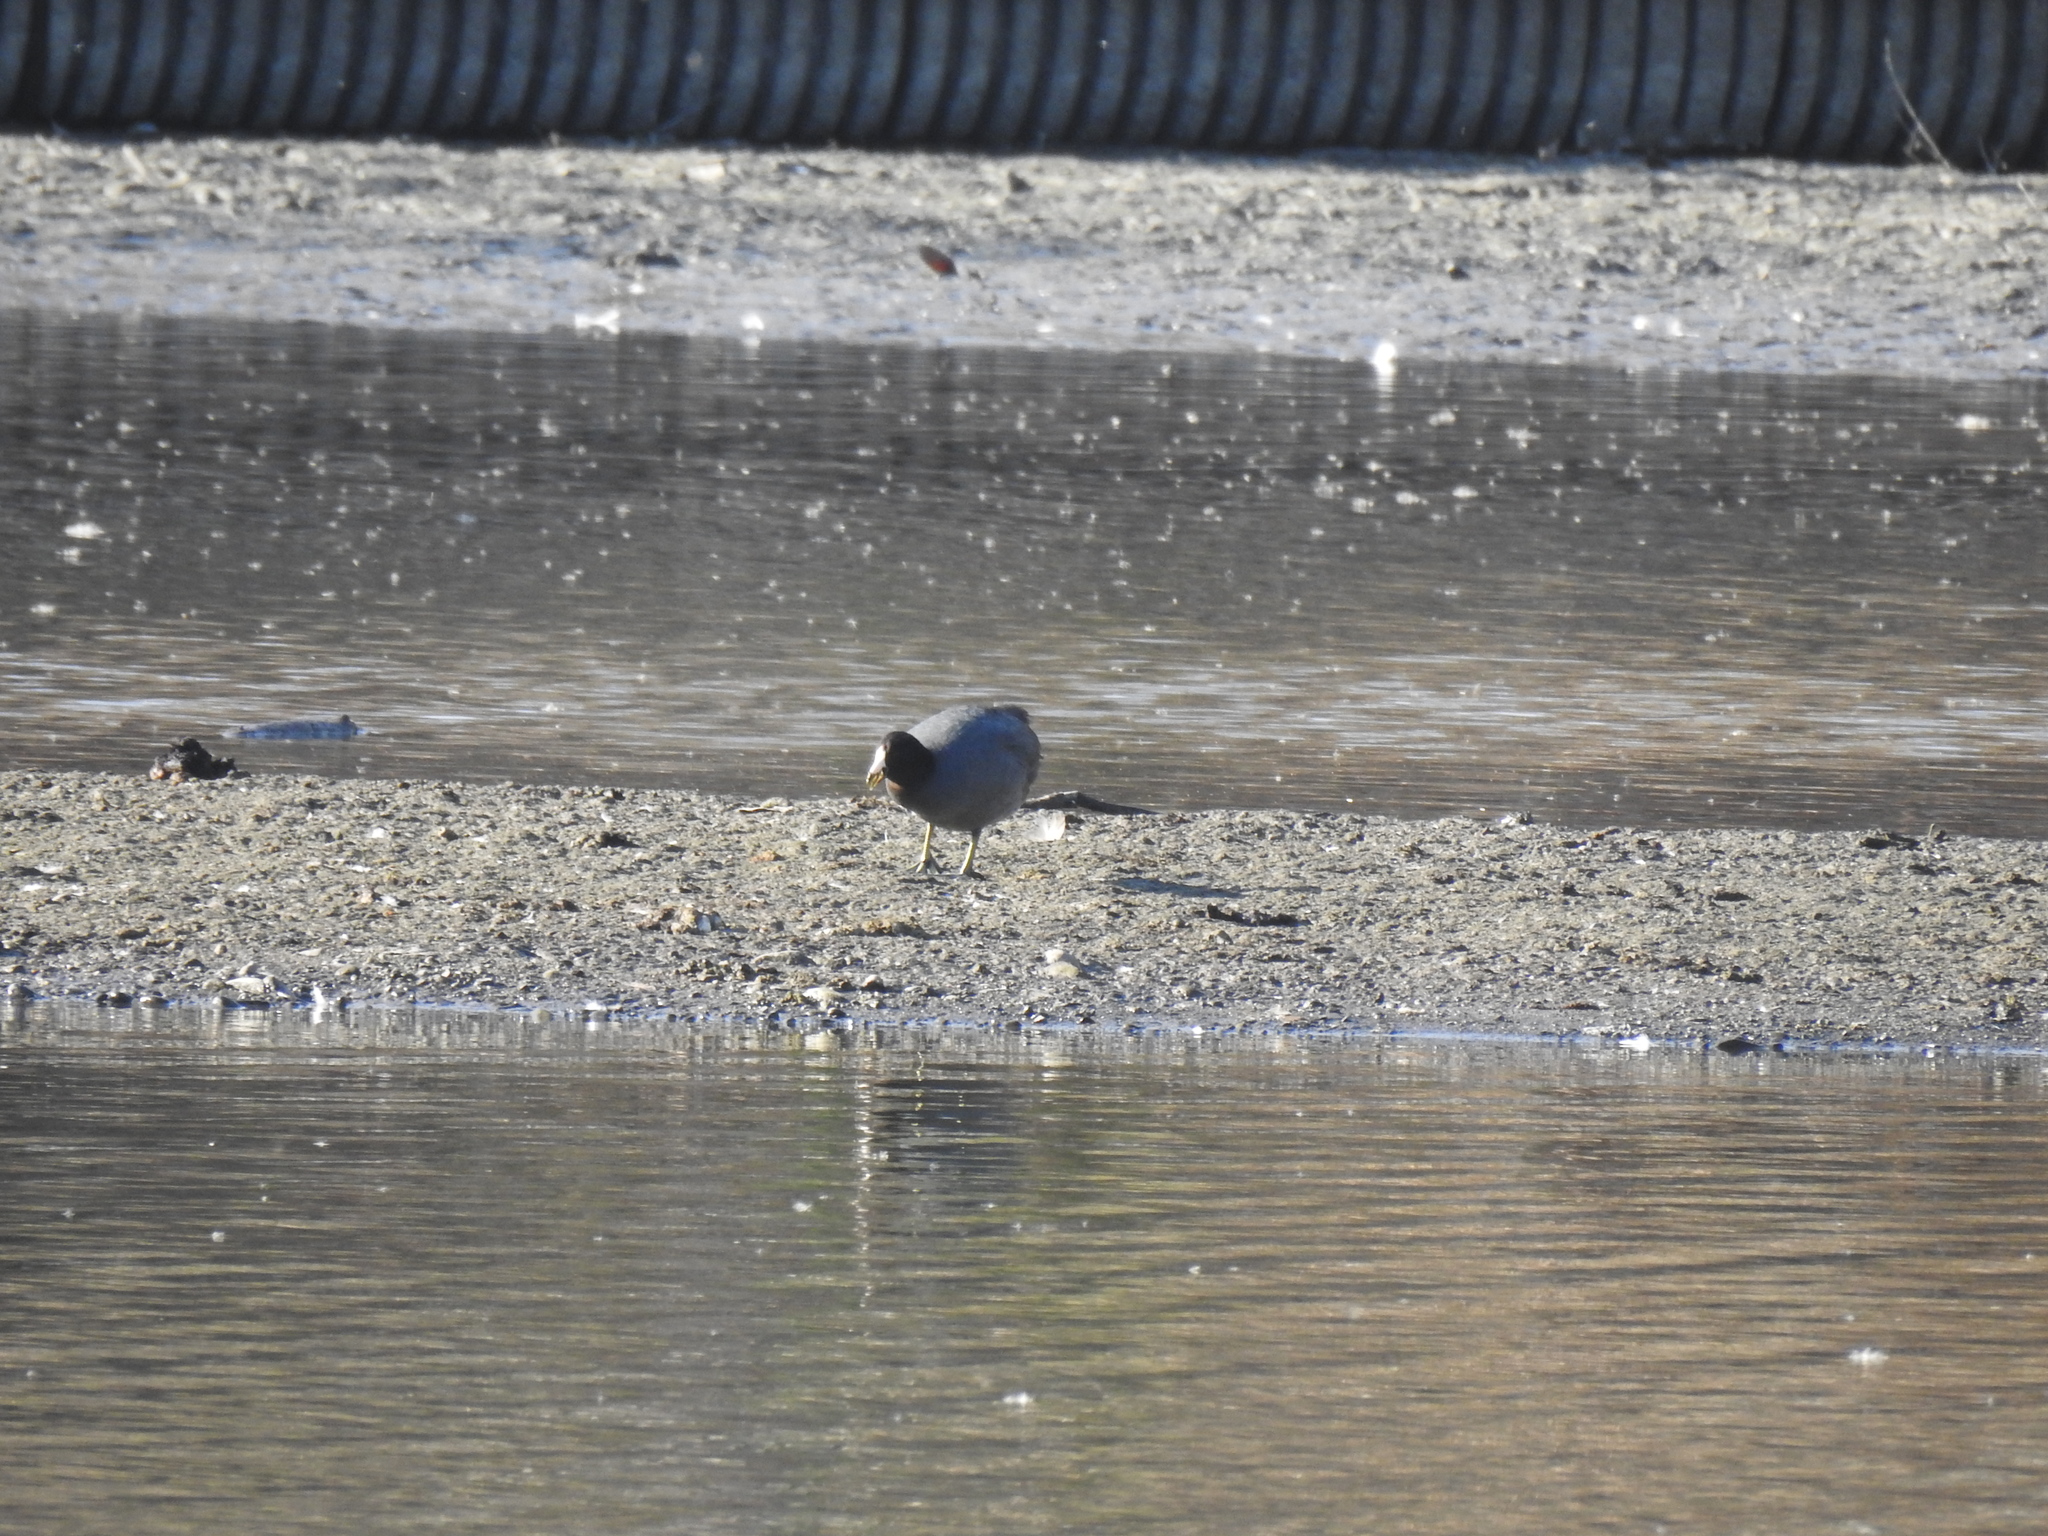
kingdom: Animalia
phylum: Chordata
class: Aves
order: Gruiformes
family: Rallidae
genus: Fulica
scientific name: Fulica americana
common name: American coot
